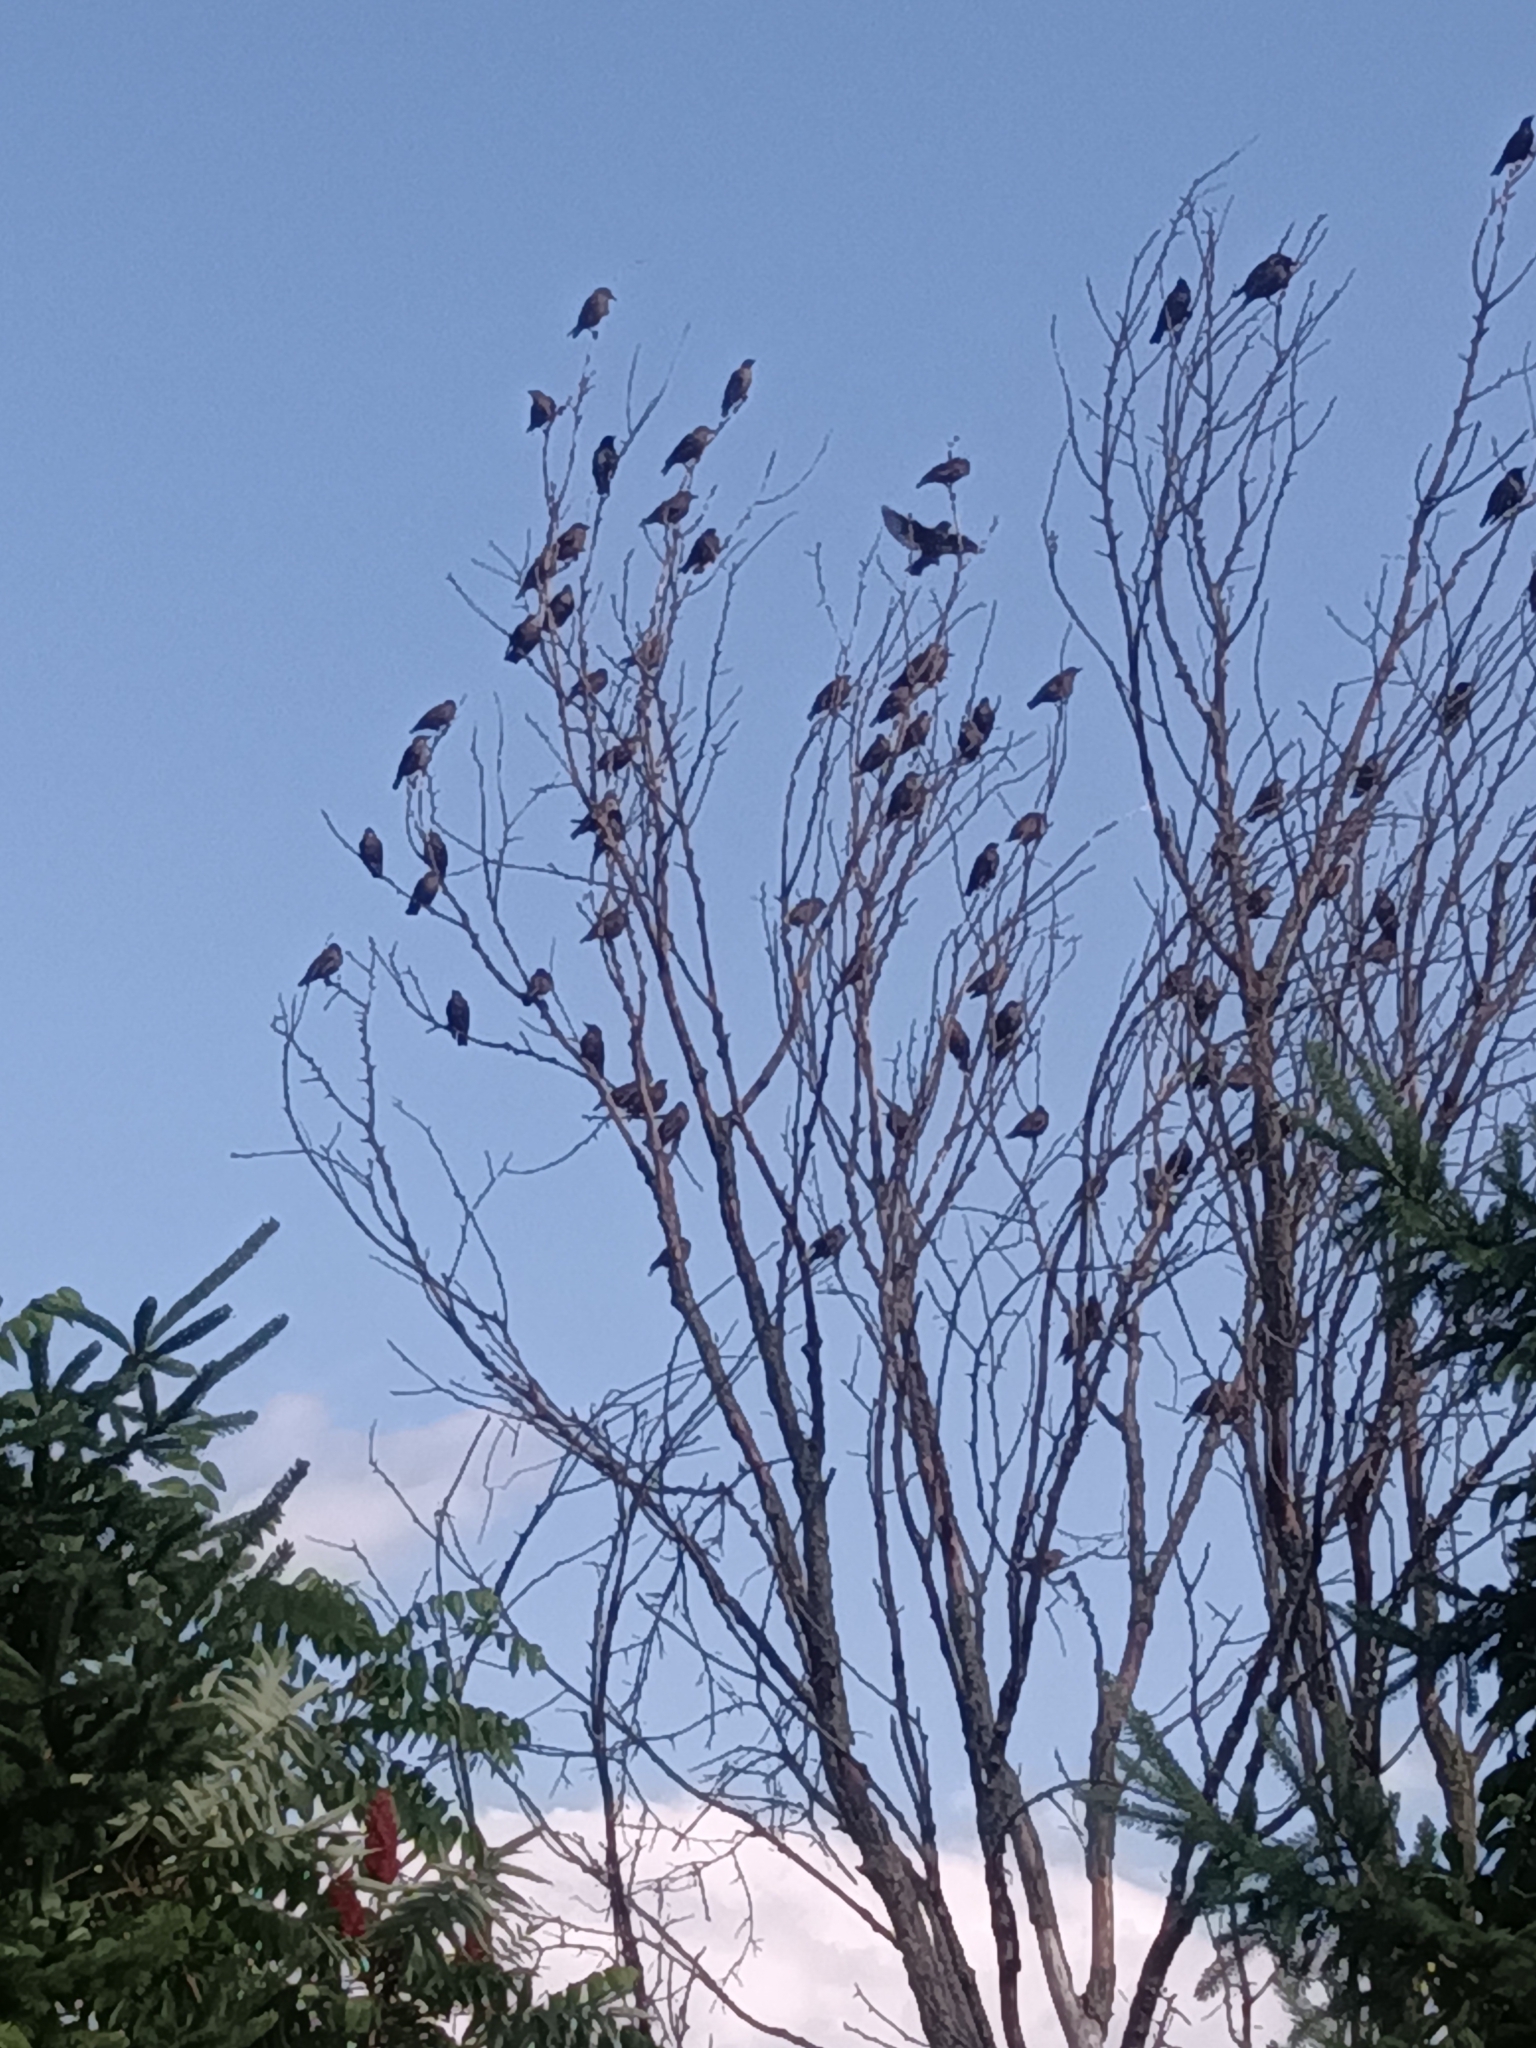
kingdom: Animalia
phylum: Chordata
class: Aves
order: Passeriformes
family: Sturnidae
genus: Sturnus
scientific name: Sturnus vulgaris
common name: Common starling
